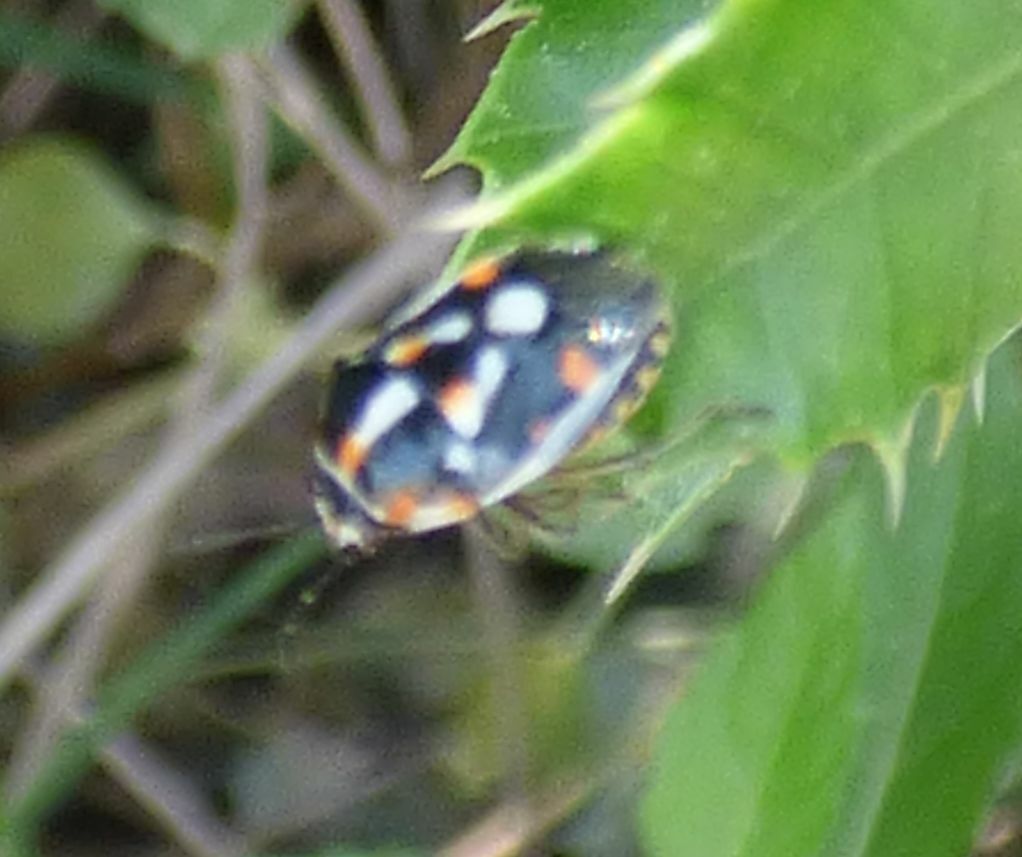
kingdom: Animalia
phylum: Arthropoda
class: Insecta
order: Hemiptera
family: Pentatomidae
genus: Bagrada
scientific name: Bagrada abeillei
